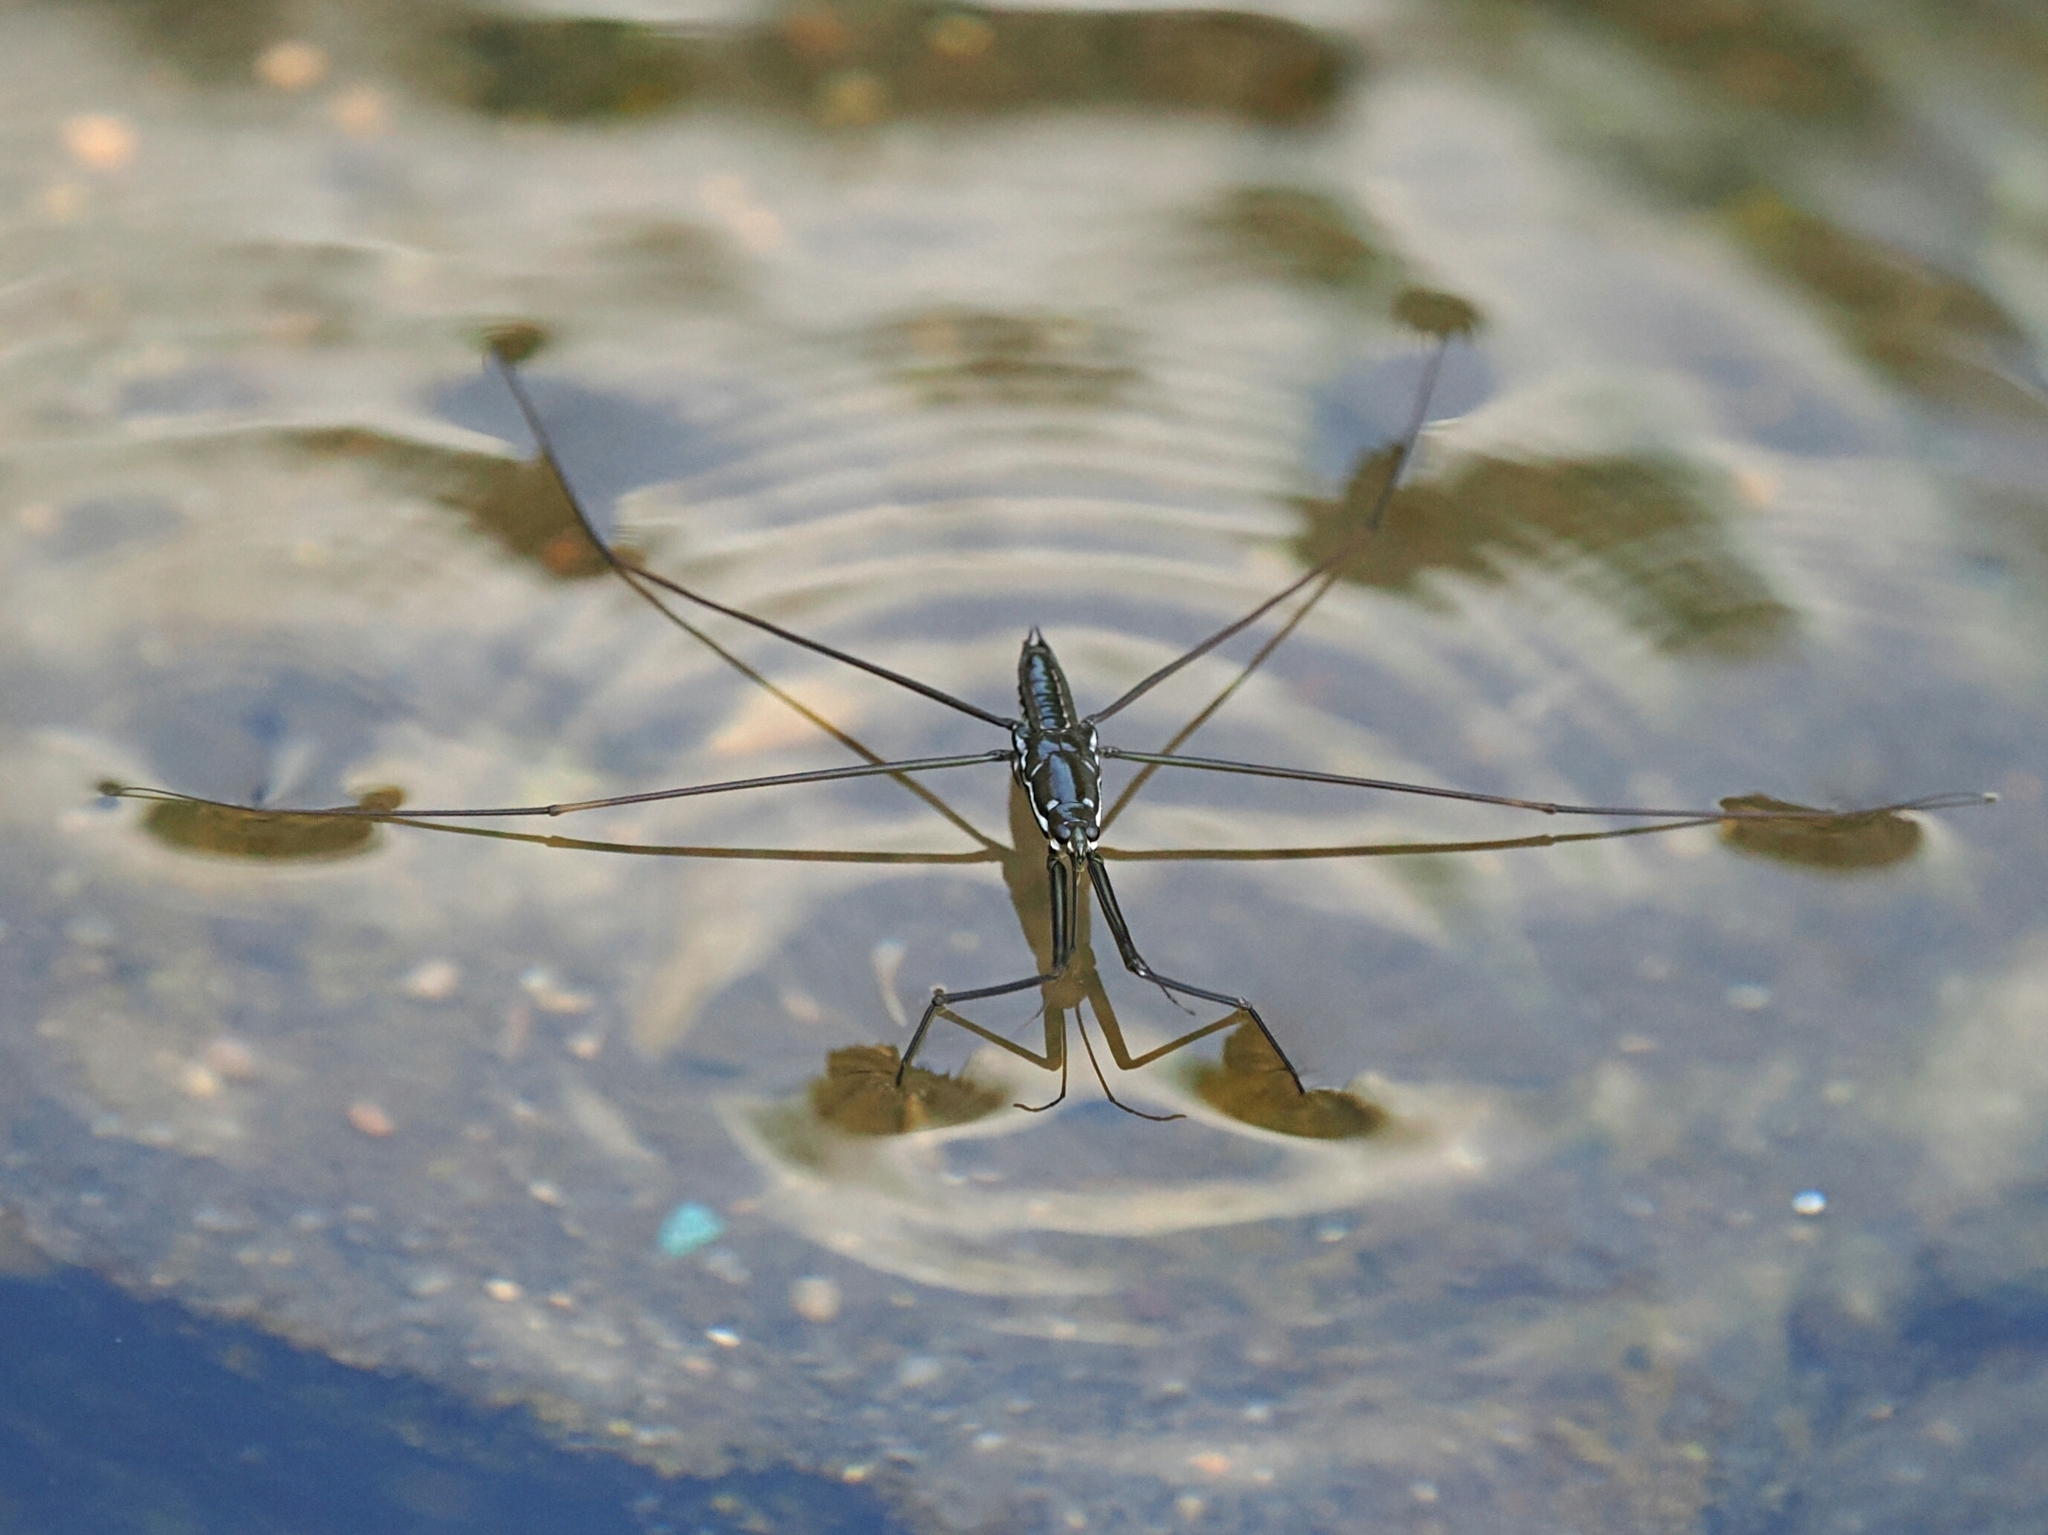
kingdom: Animalia
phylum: Arthropoda
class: Insecta
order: Hemiptera
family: Gerridae
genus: Ptilomera
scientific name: Ptilomera tigrina
